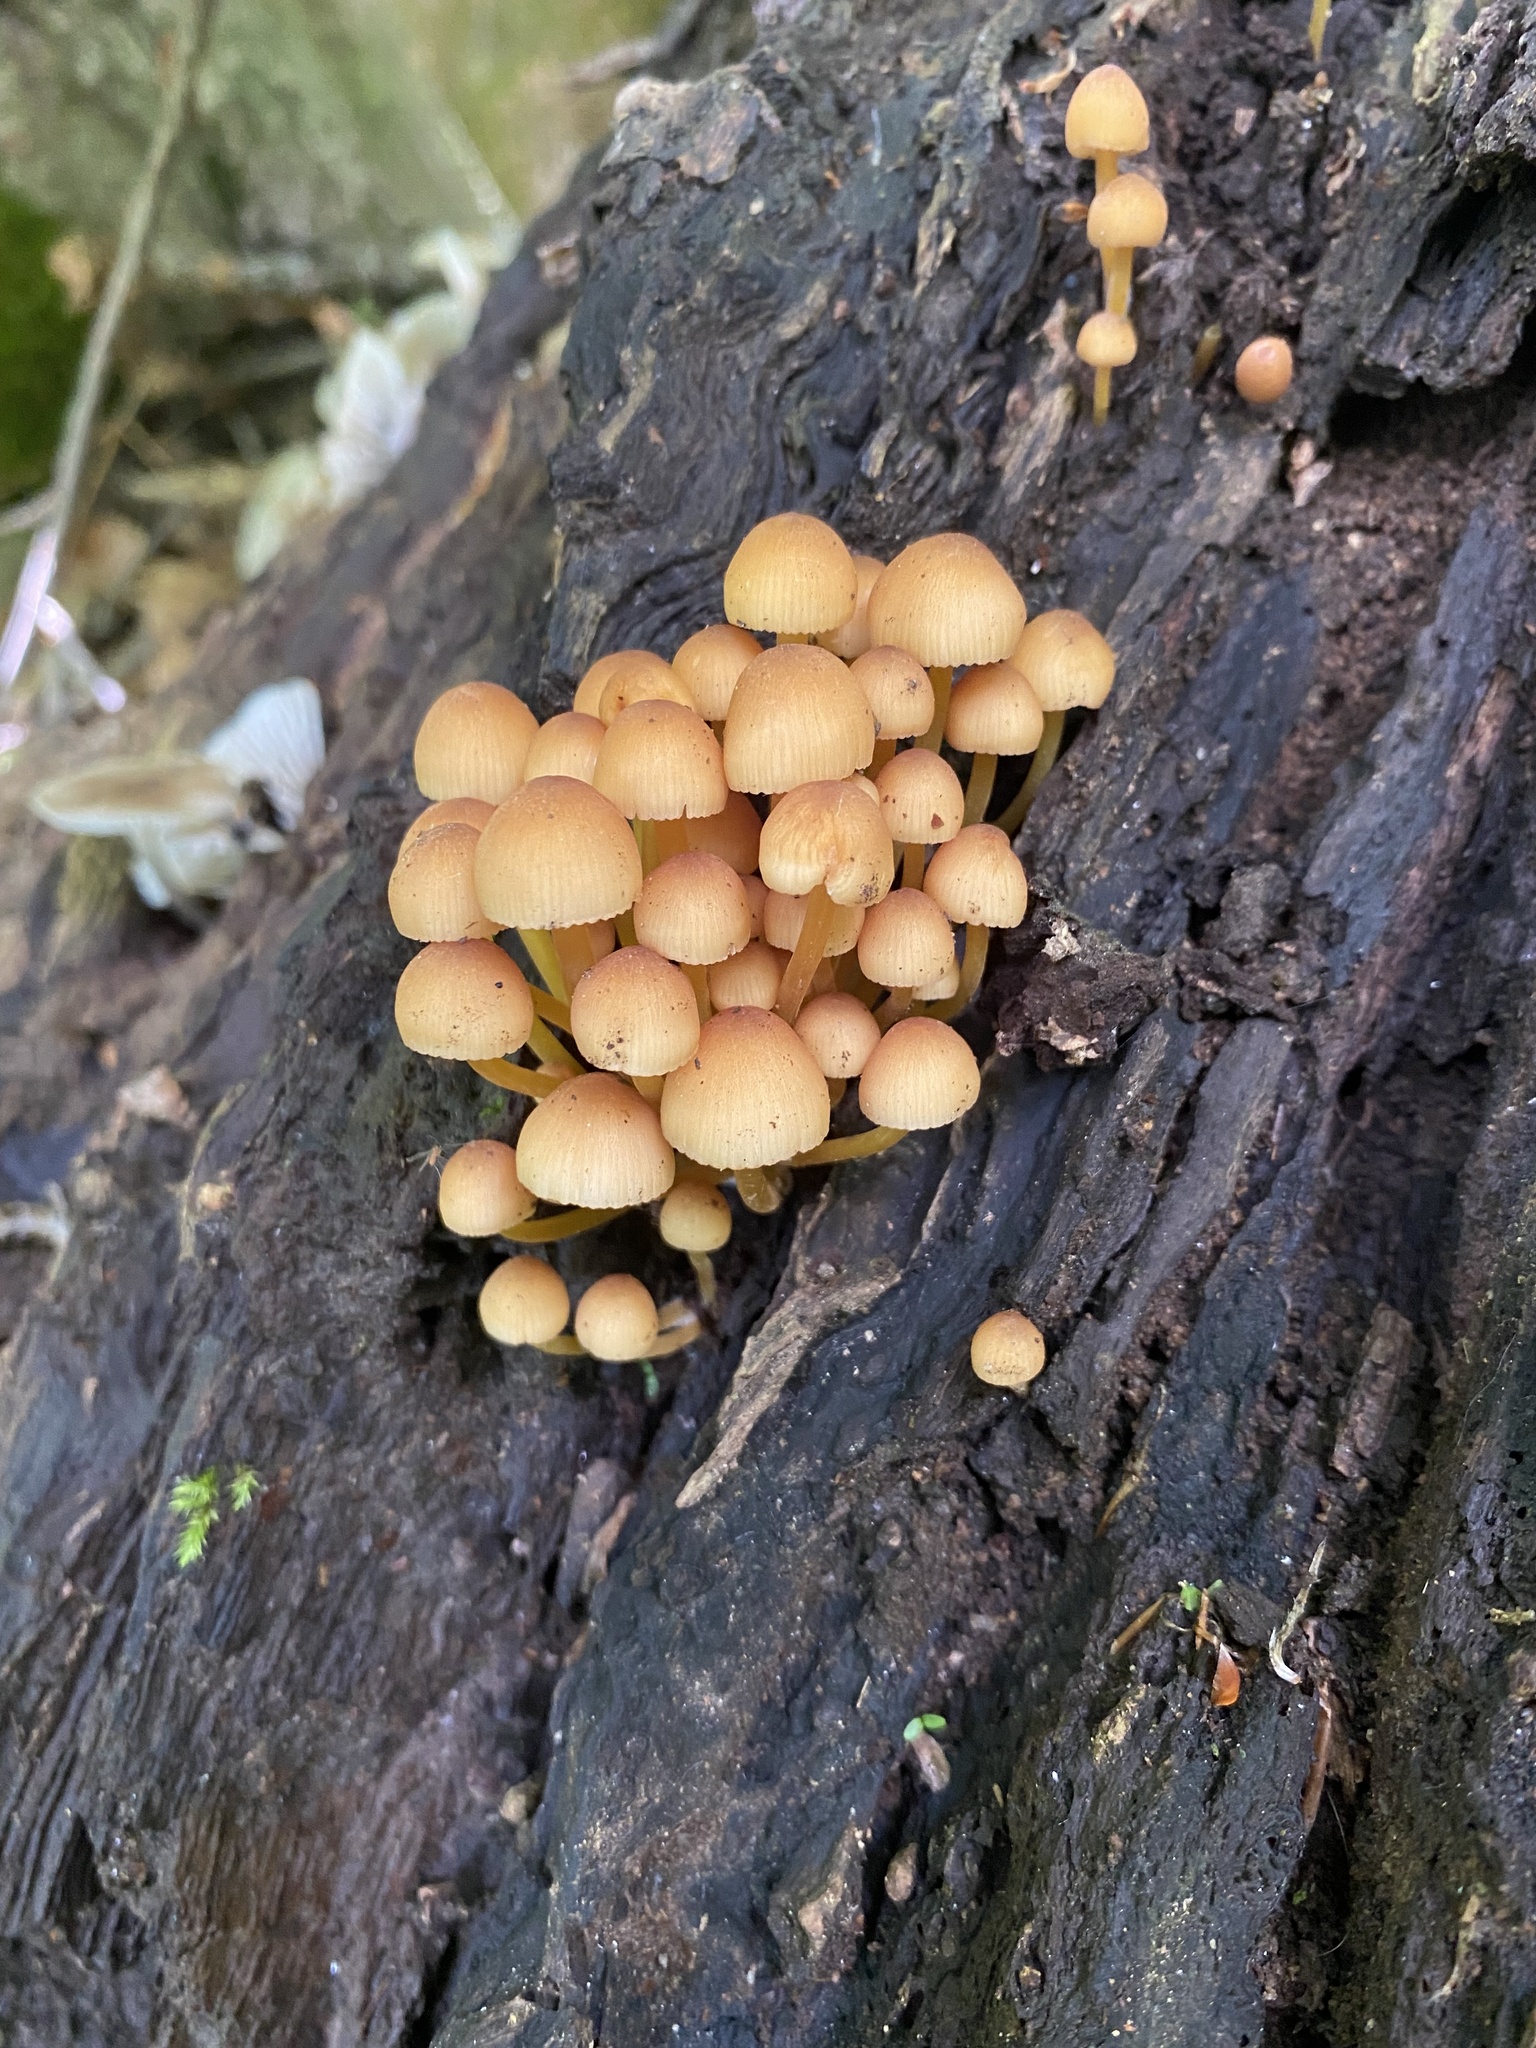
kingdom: Fungi
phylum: Basidiomycota
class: Agaricomycetes
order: Agaricales
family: Mycenaceae
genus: Mycena
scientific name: Mycena renati
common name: Beautiful bonnet
